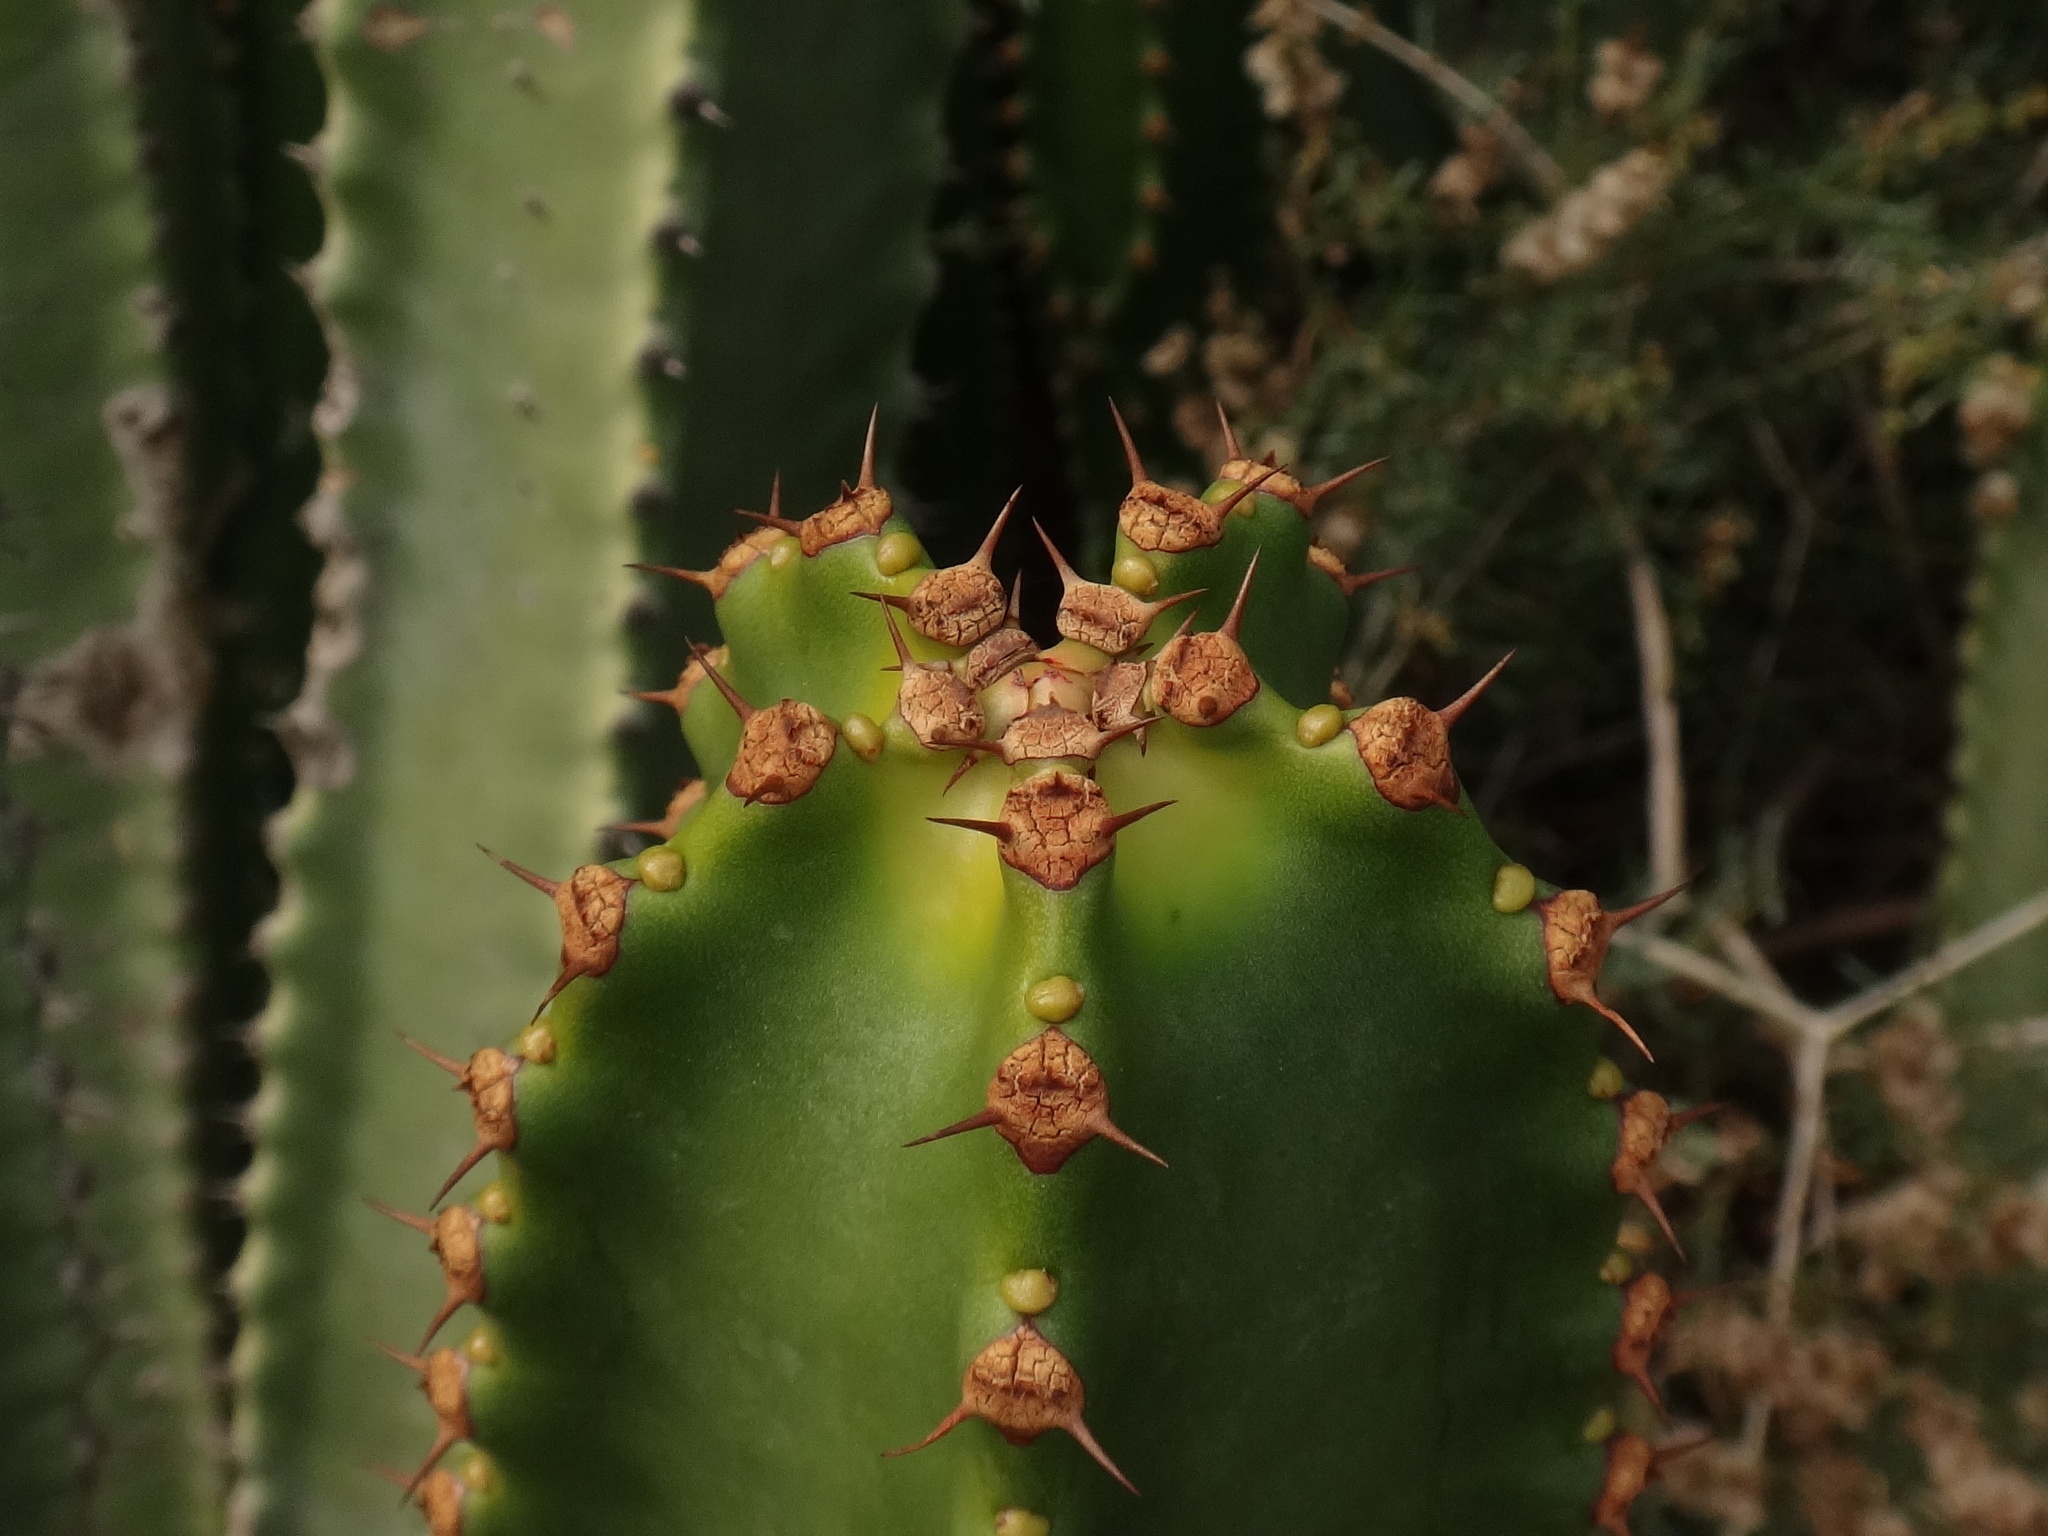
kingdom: Plantae
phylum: Tracheophyta
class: Magnoliopsida
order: Malpighiales
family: Euphorbiaceae
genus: Euphorbia
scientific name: Euphorbia canariensis
